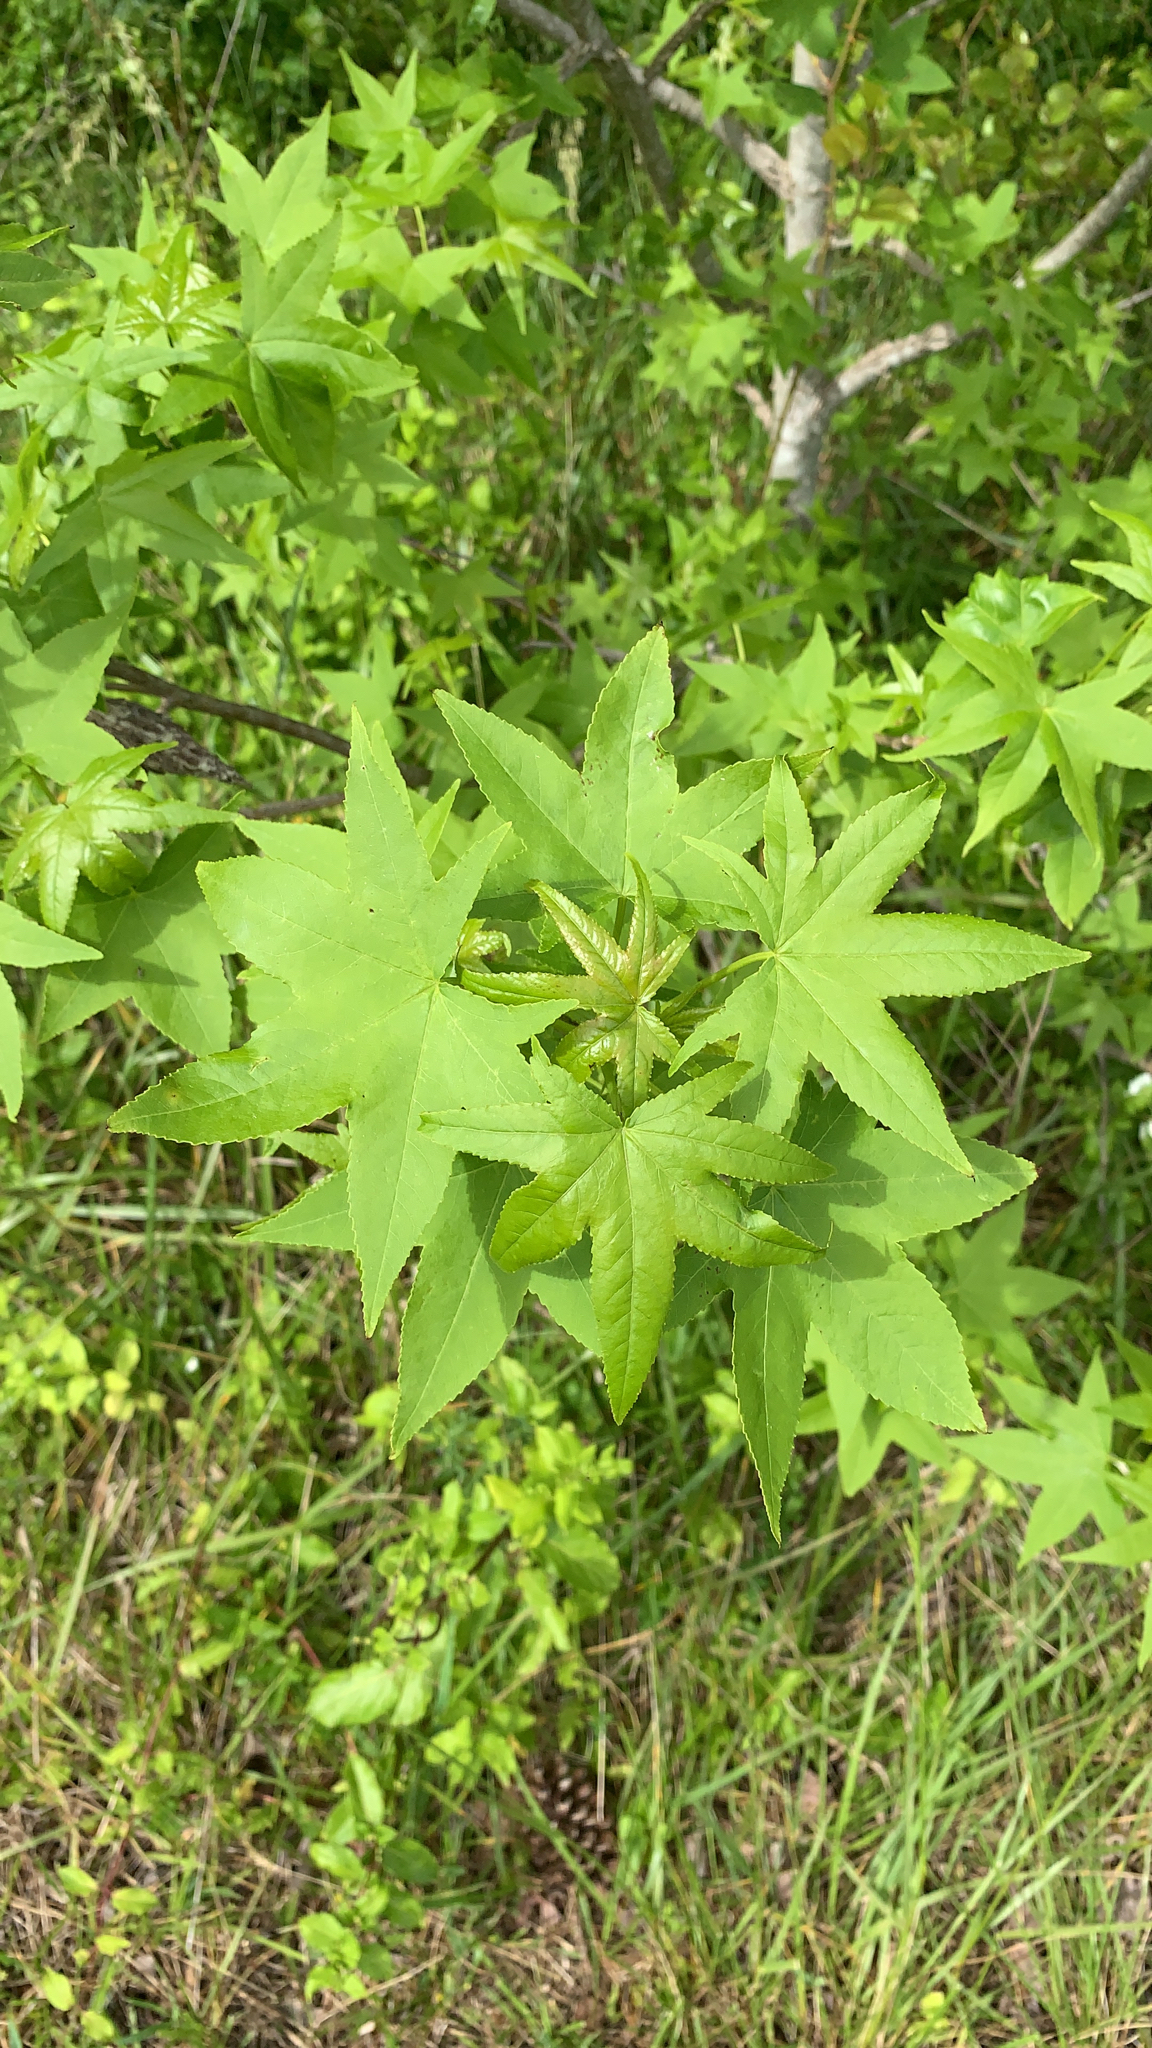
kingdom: Plantae
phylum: Tracheophyta
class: Magnoliopsida
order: Saxifragales
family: Altingiaceae
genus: Liquidambar
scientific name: Liquidambar styraciflua
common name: Sweet gum
